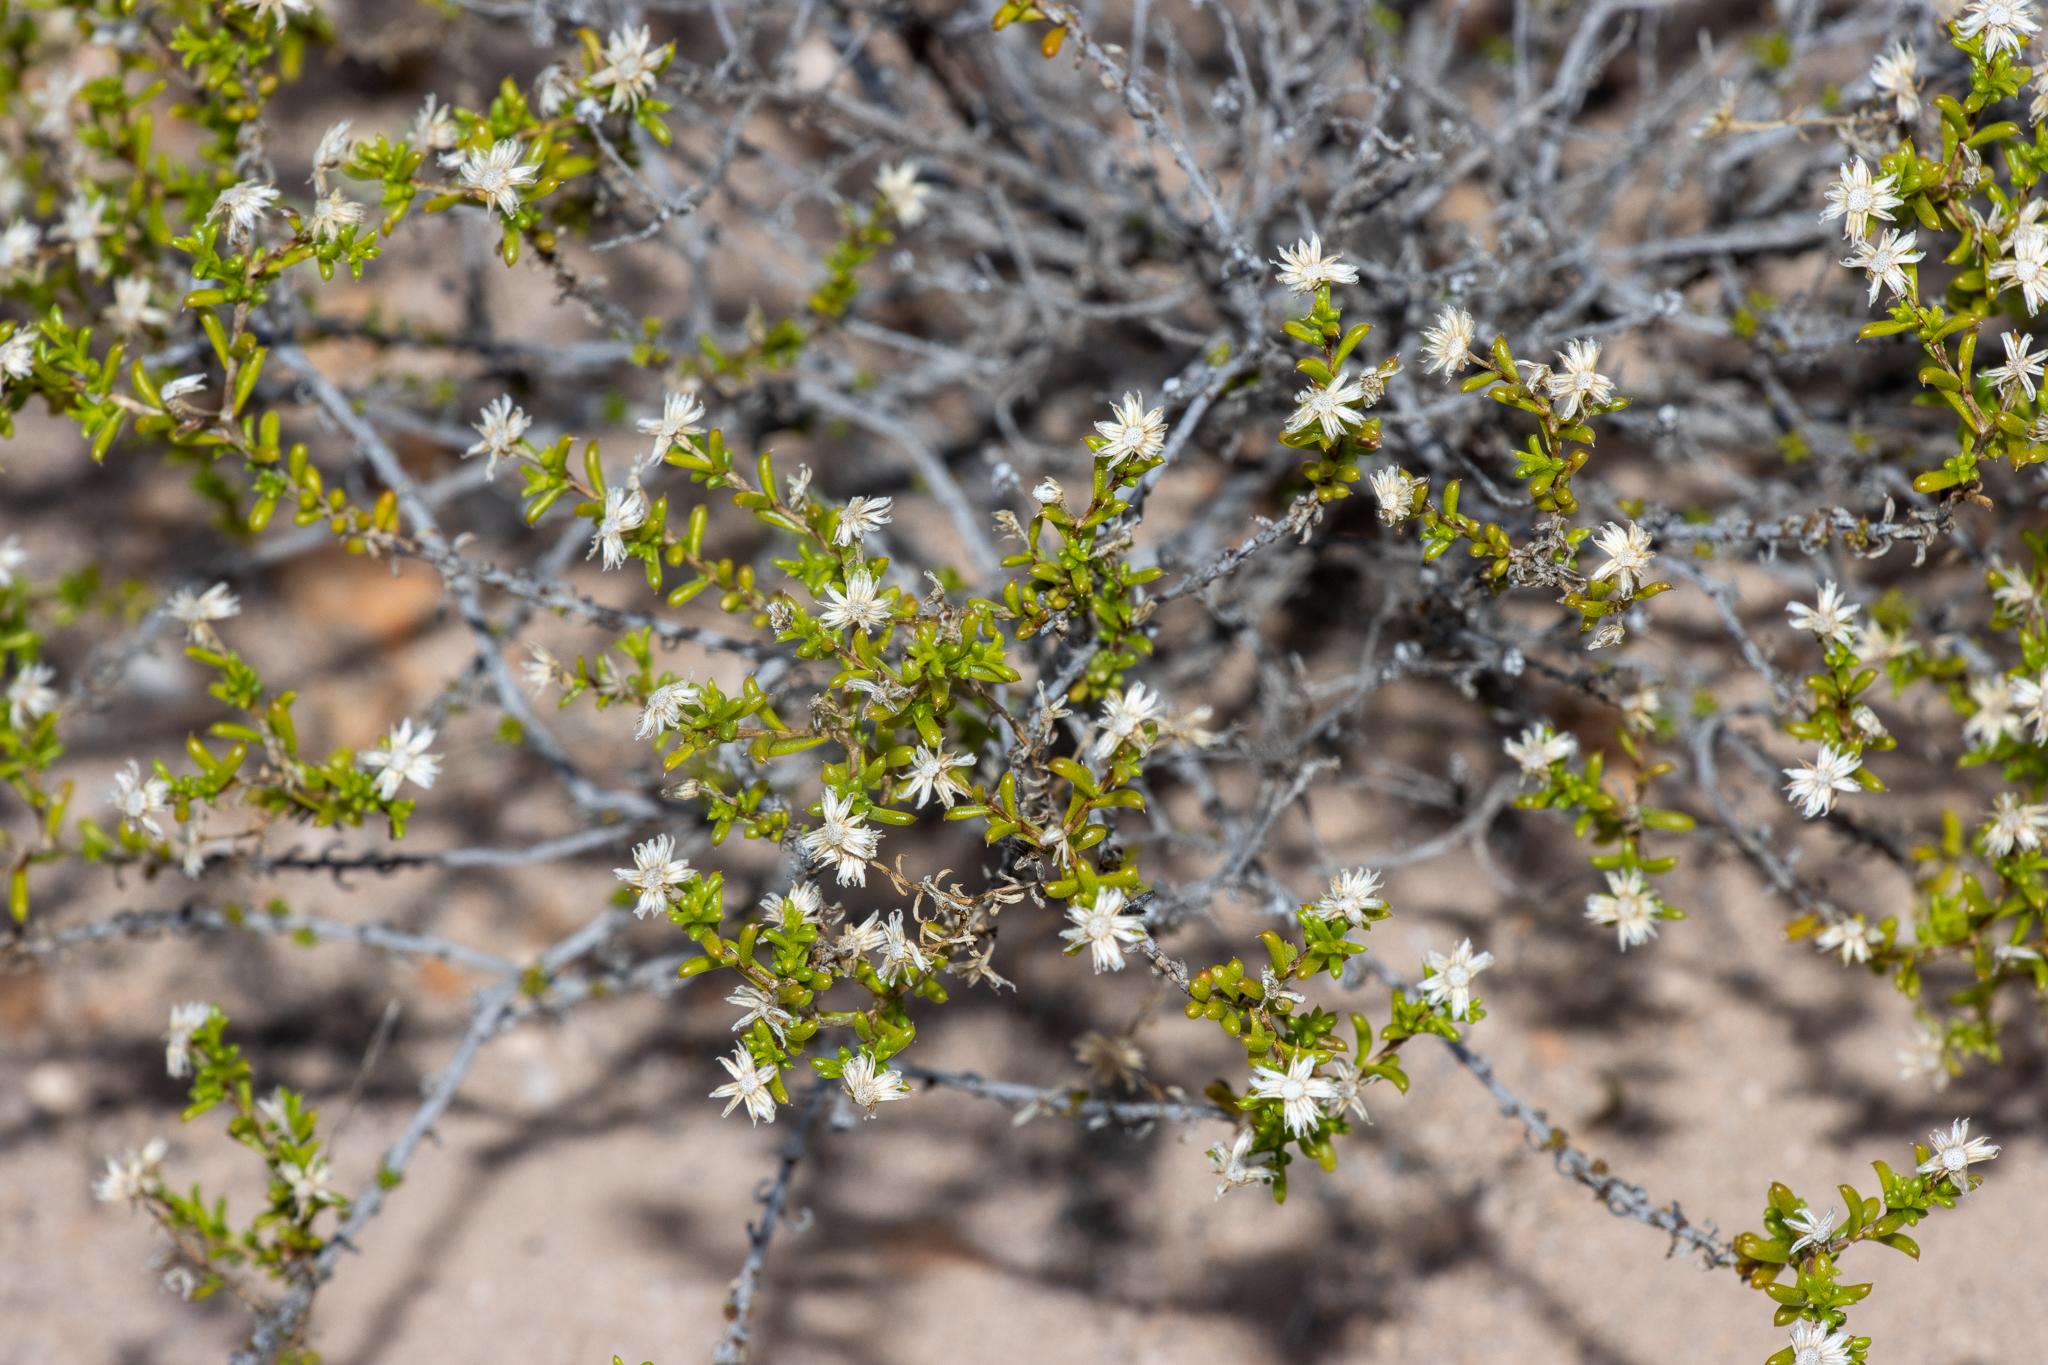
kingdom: Plantae
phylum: Tracheophyta
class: Magnoliopsida
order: Asterales
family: Asteraceae
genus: Kippistia
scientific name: Kippistia suaedifolia
